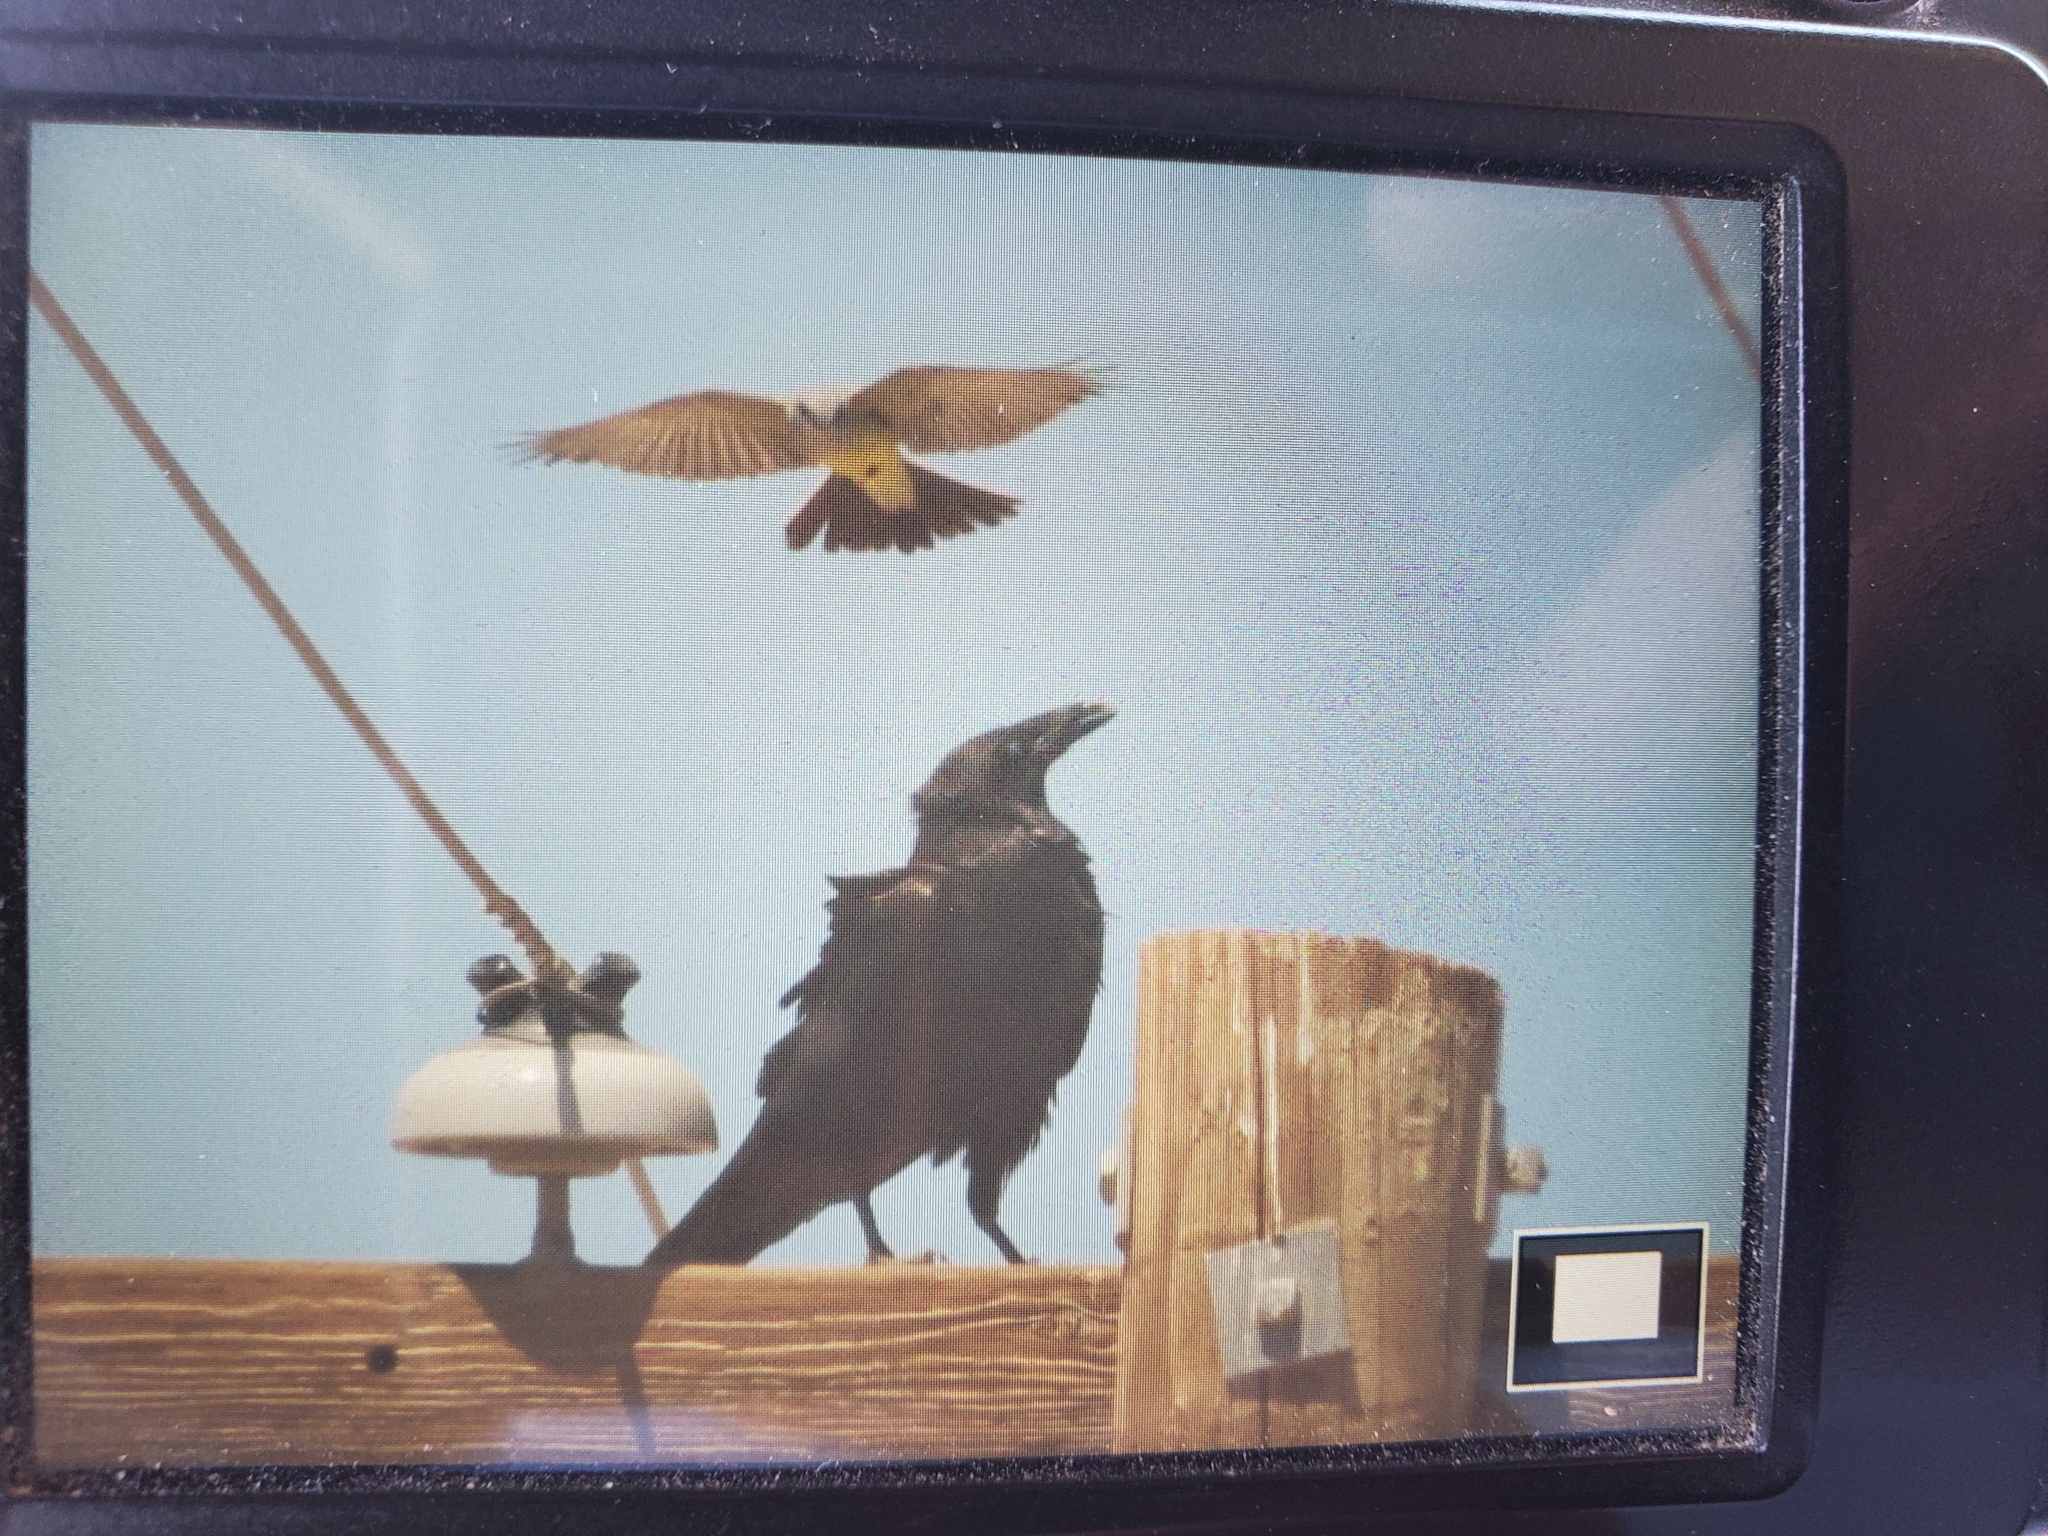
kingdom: Animalia
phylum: Chordata
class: Aves
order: Passeriformes
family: Corvidae
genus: Corvus
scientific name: Corvus corax
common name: Common raven
